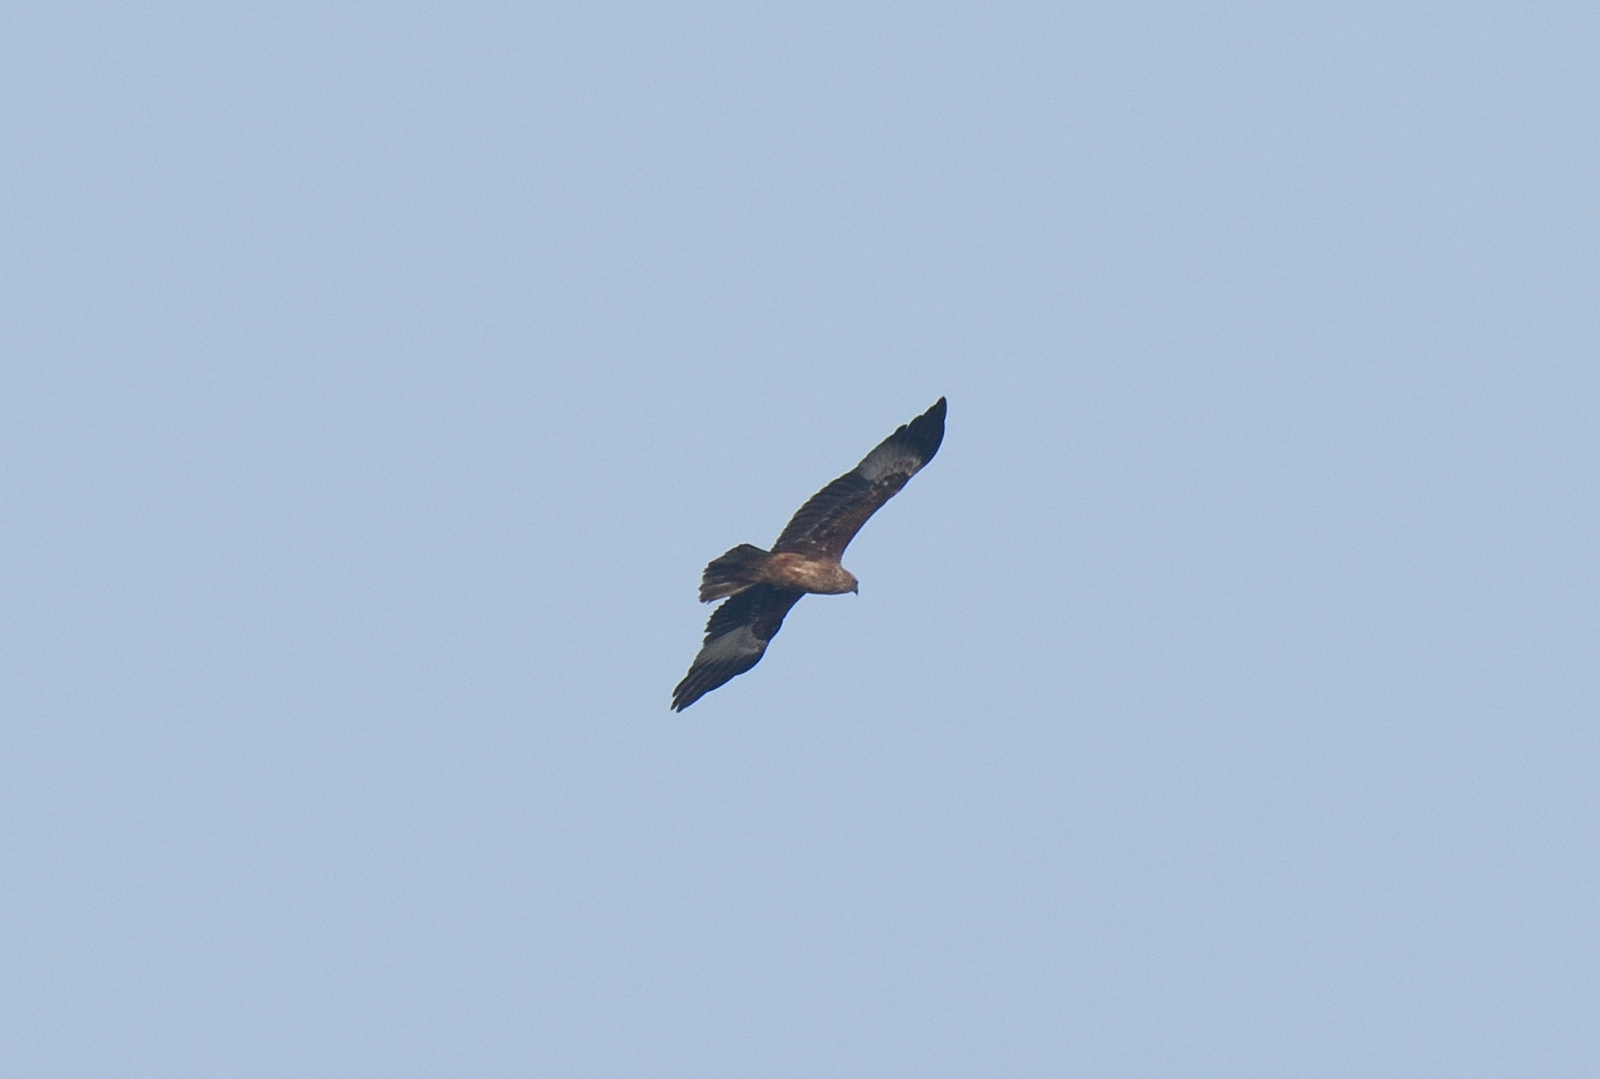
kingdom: Animalia
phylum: Chordata
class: Aves
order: Accipitriformes
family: Accipitridae
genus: Haliastur
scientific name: Haliastur indus
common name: Brahminy kite
